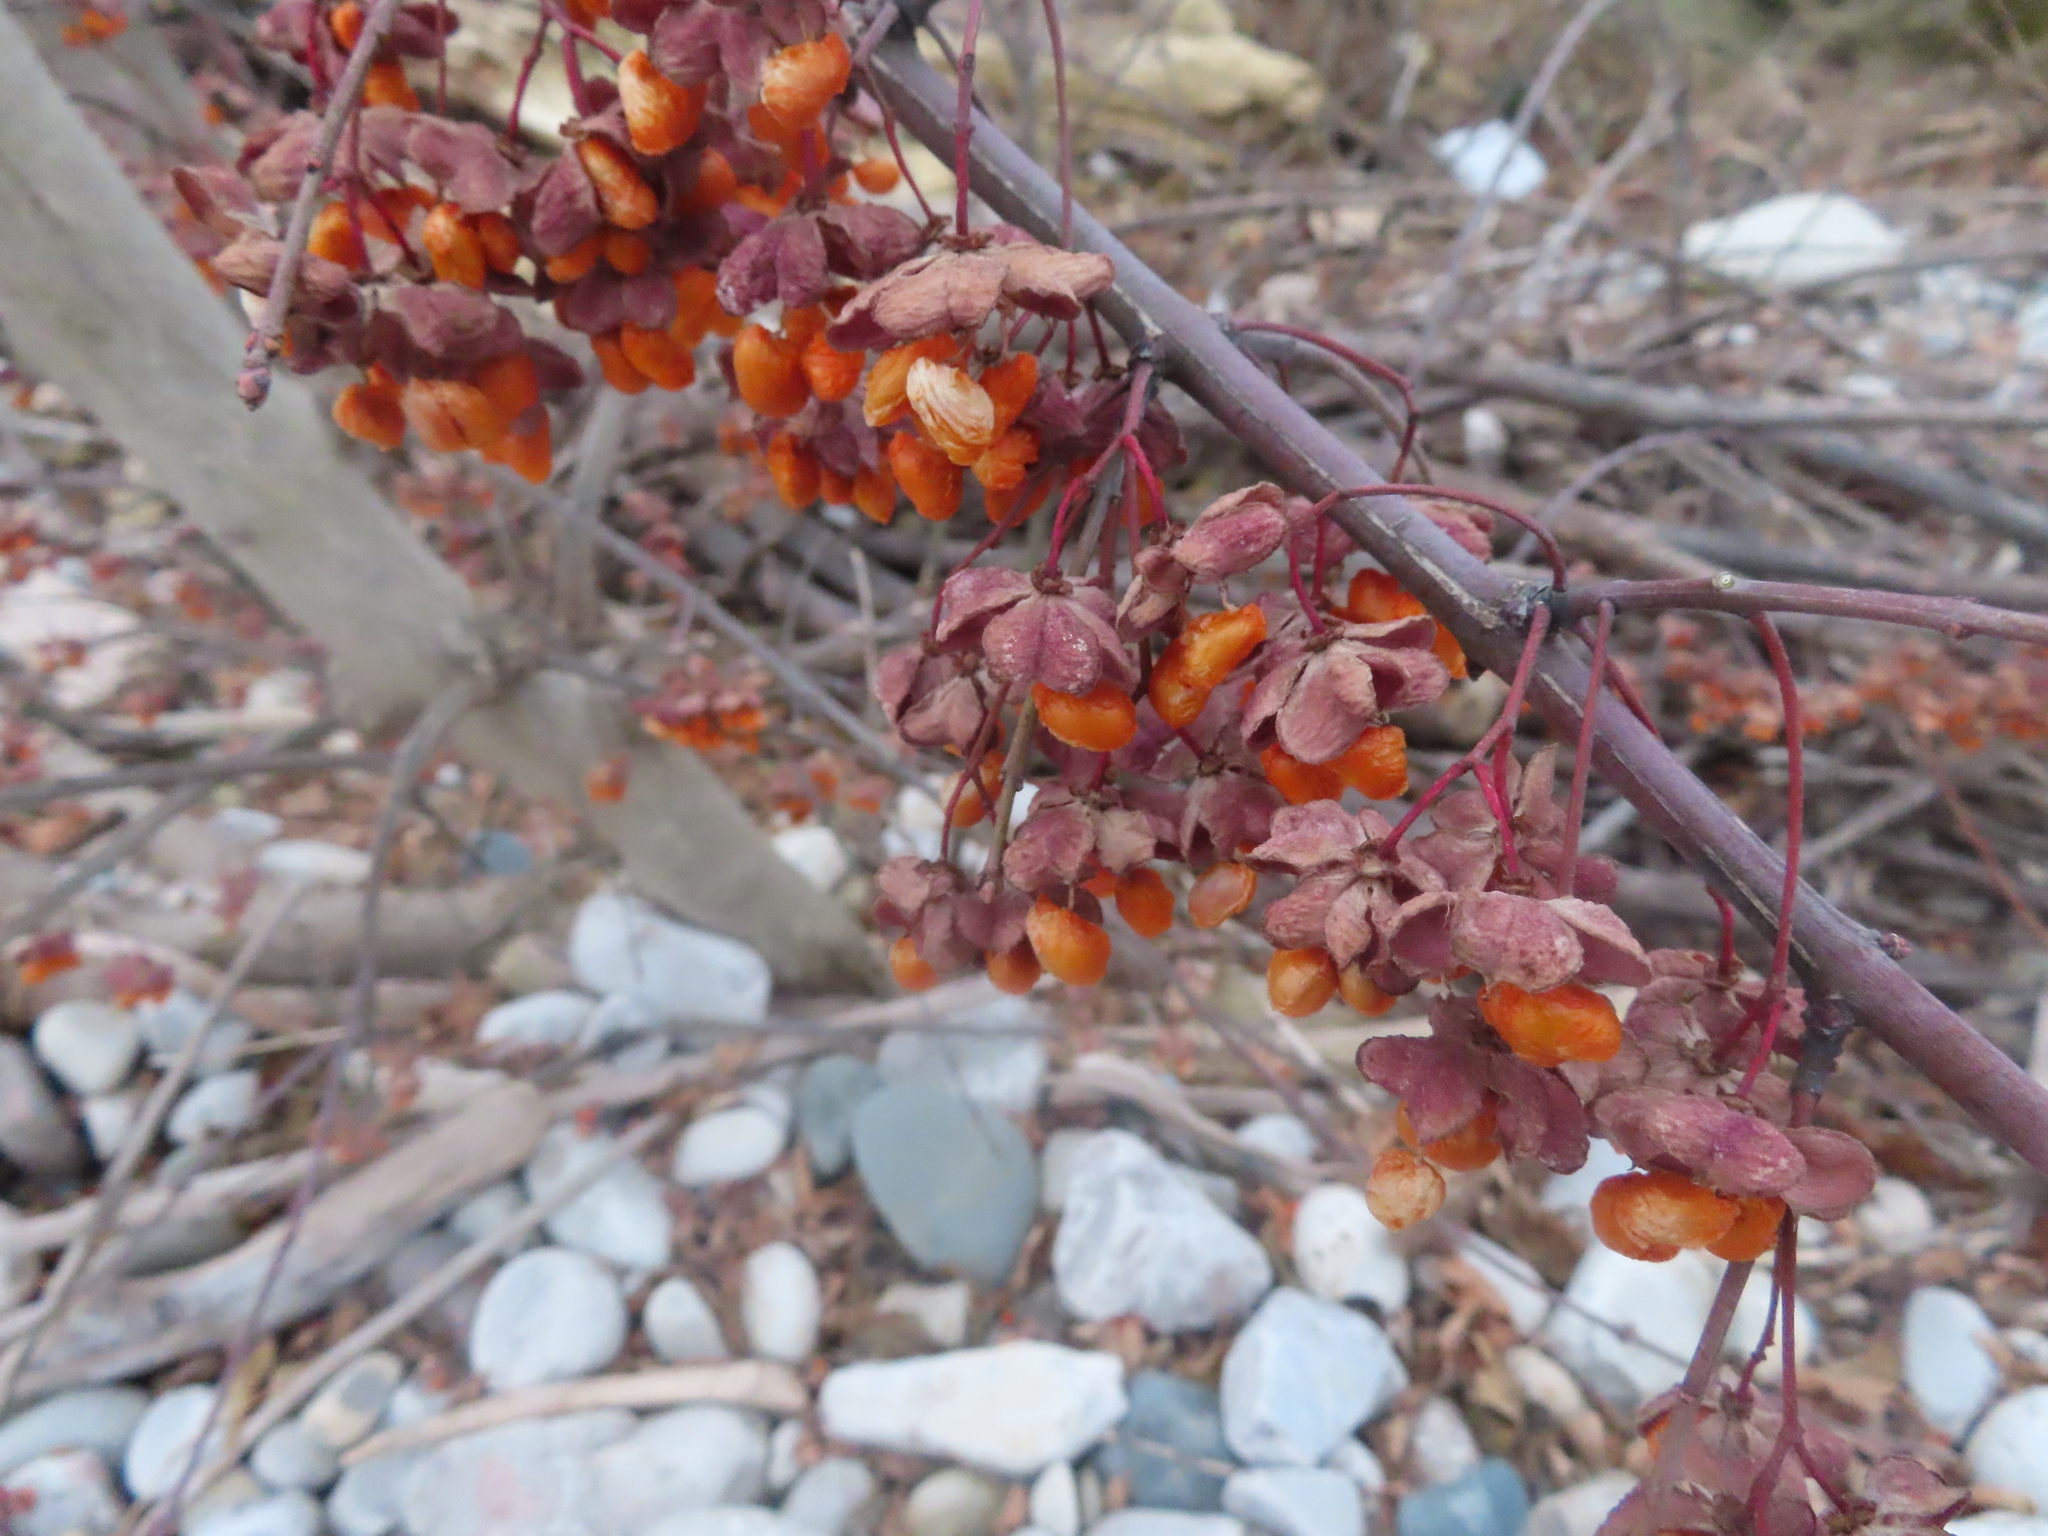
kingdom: Plantae
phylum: Tracheophyta
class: Magnoliopsida
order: Celastrales
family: Celastraceae
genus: Euonymus
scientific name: Euonymus europaeus
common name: Spindle
